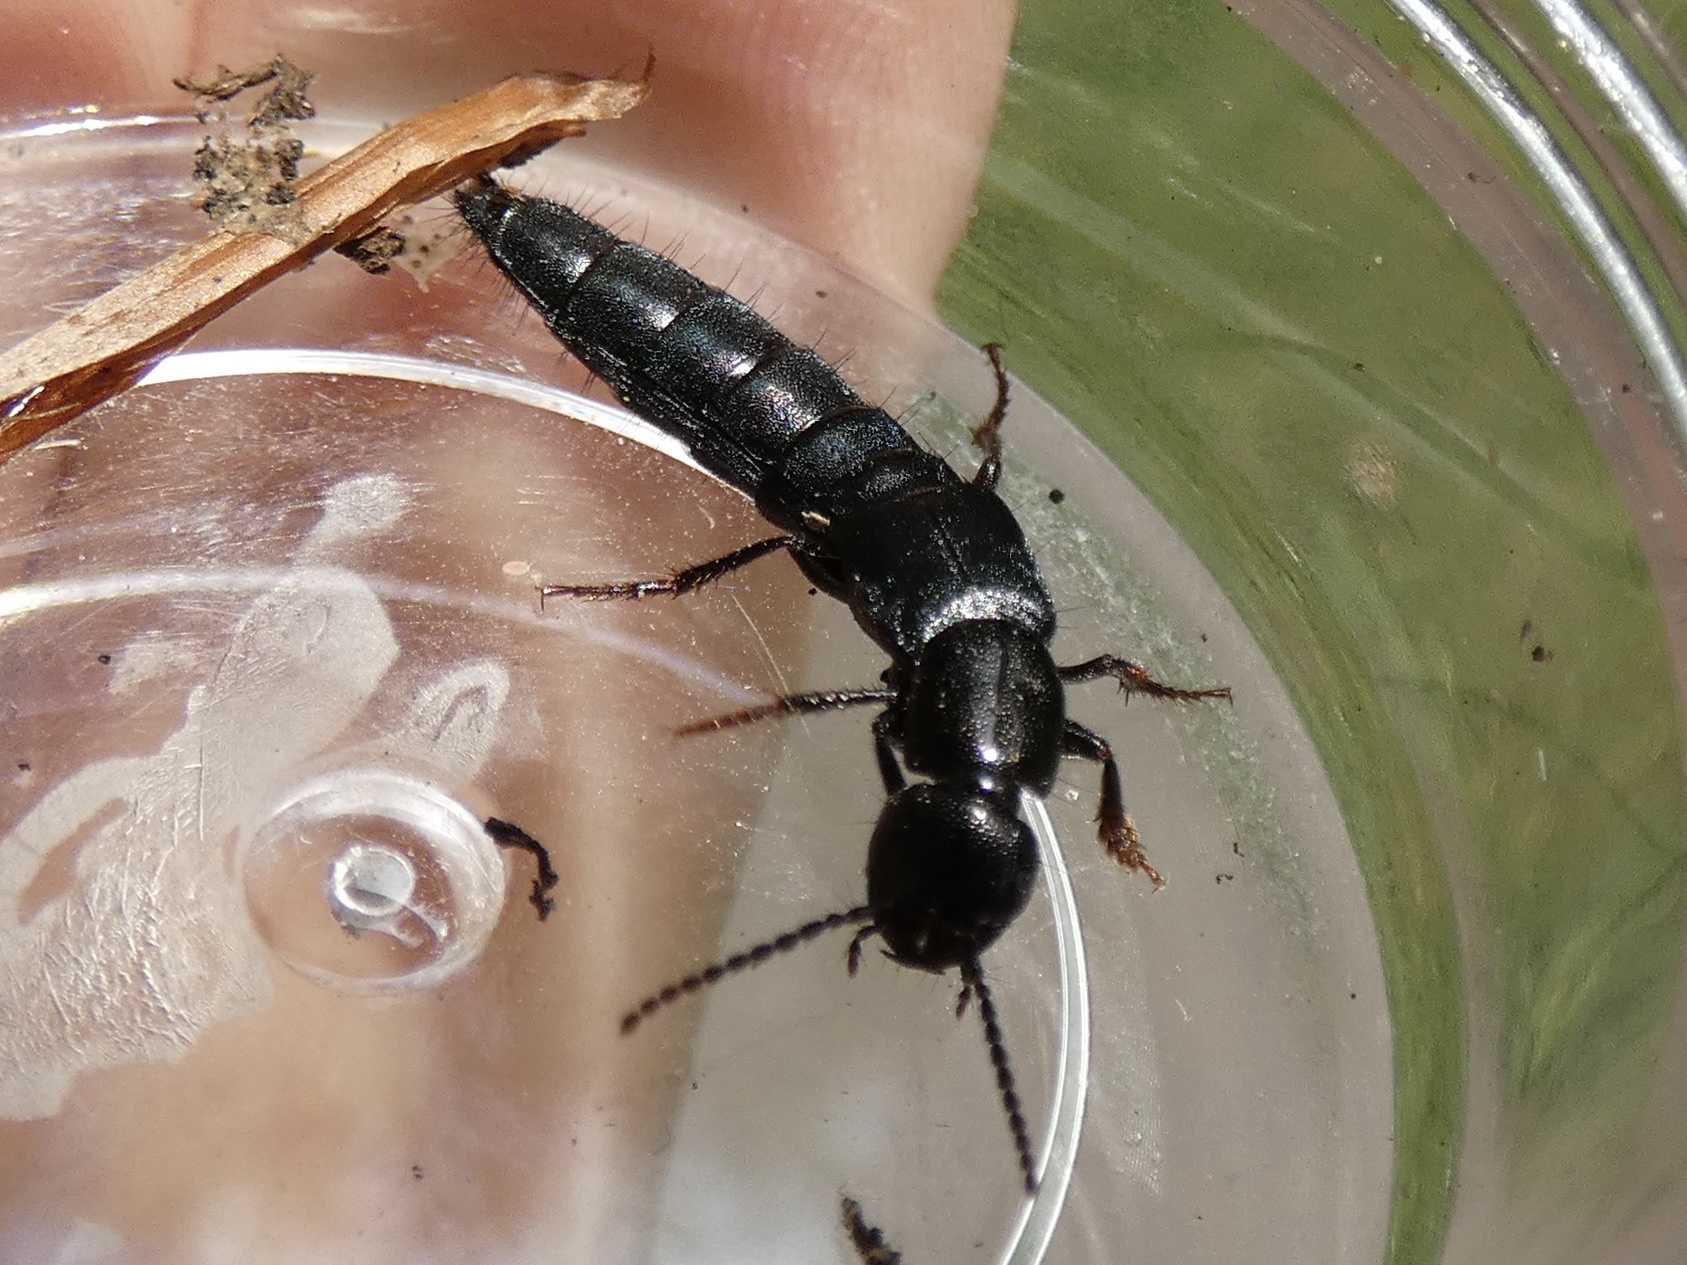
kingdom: Animalia
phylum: Arthropoda
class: Insecta
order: Coleoptera
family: Staphylinidae
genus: Tasgius
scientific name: Tasgius ater
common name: Staph beetle
